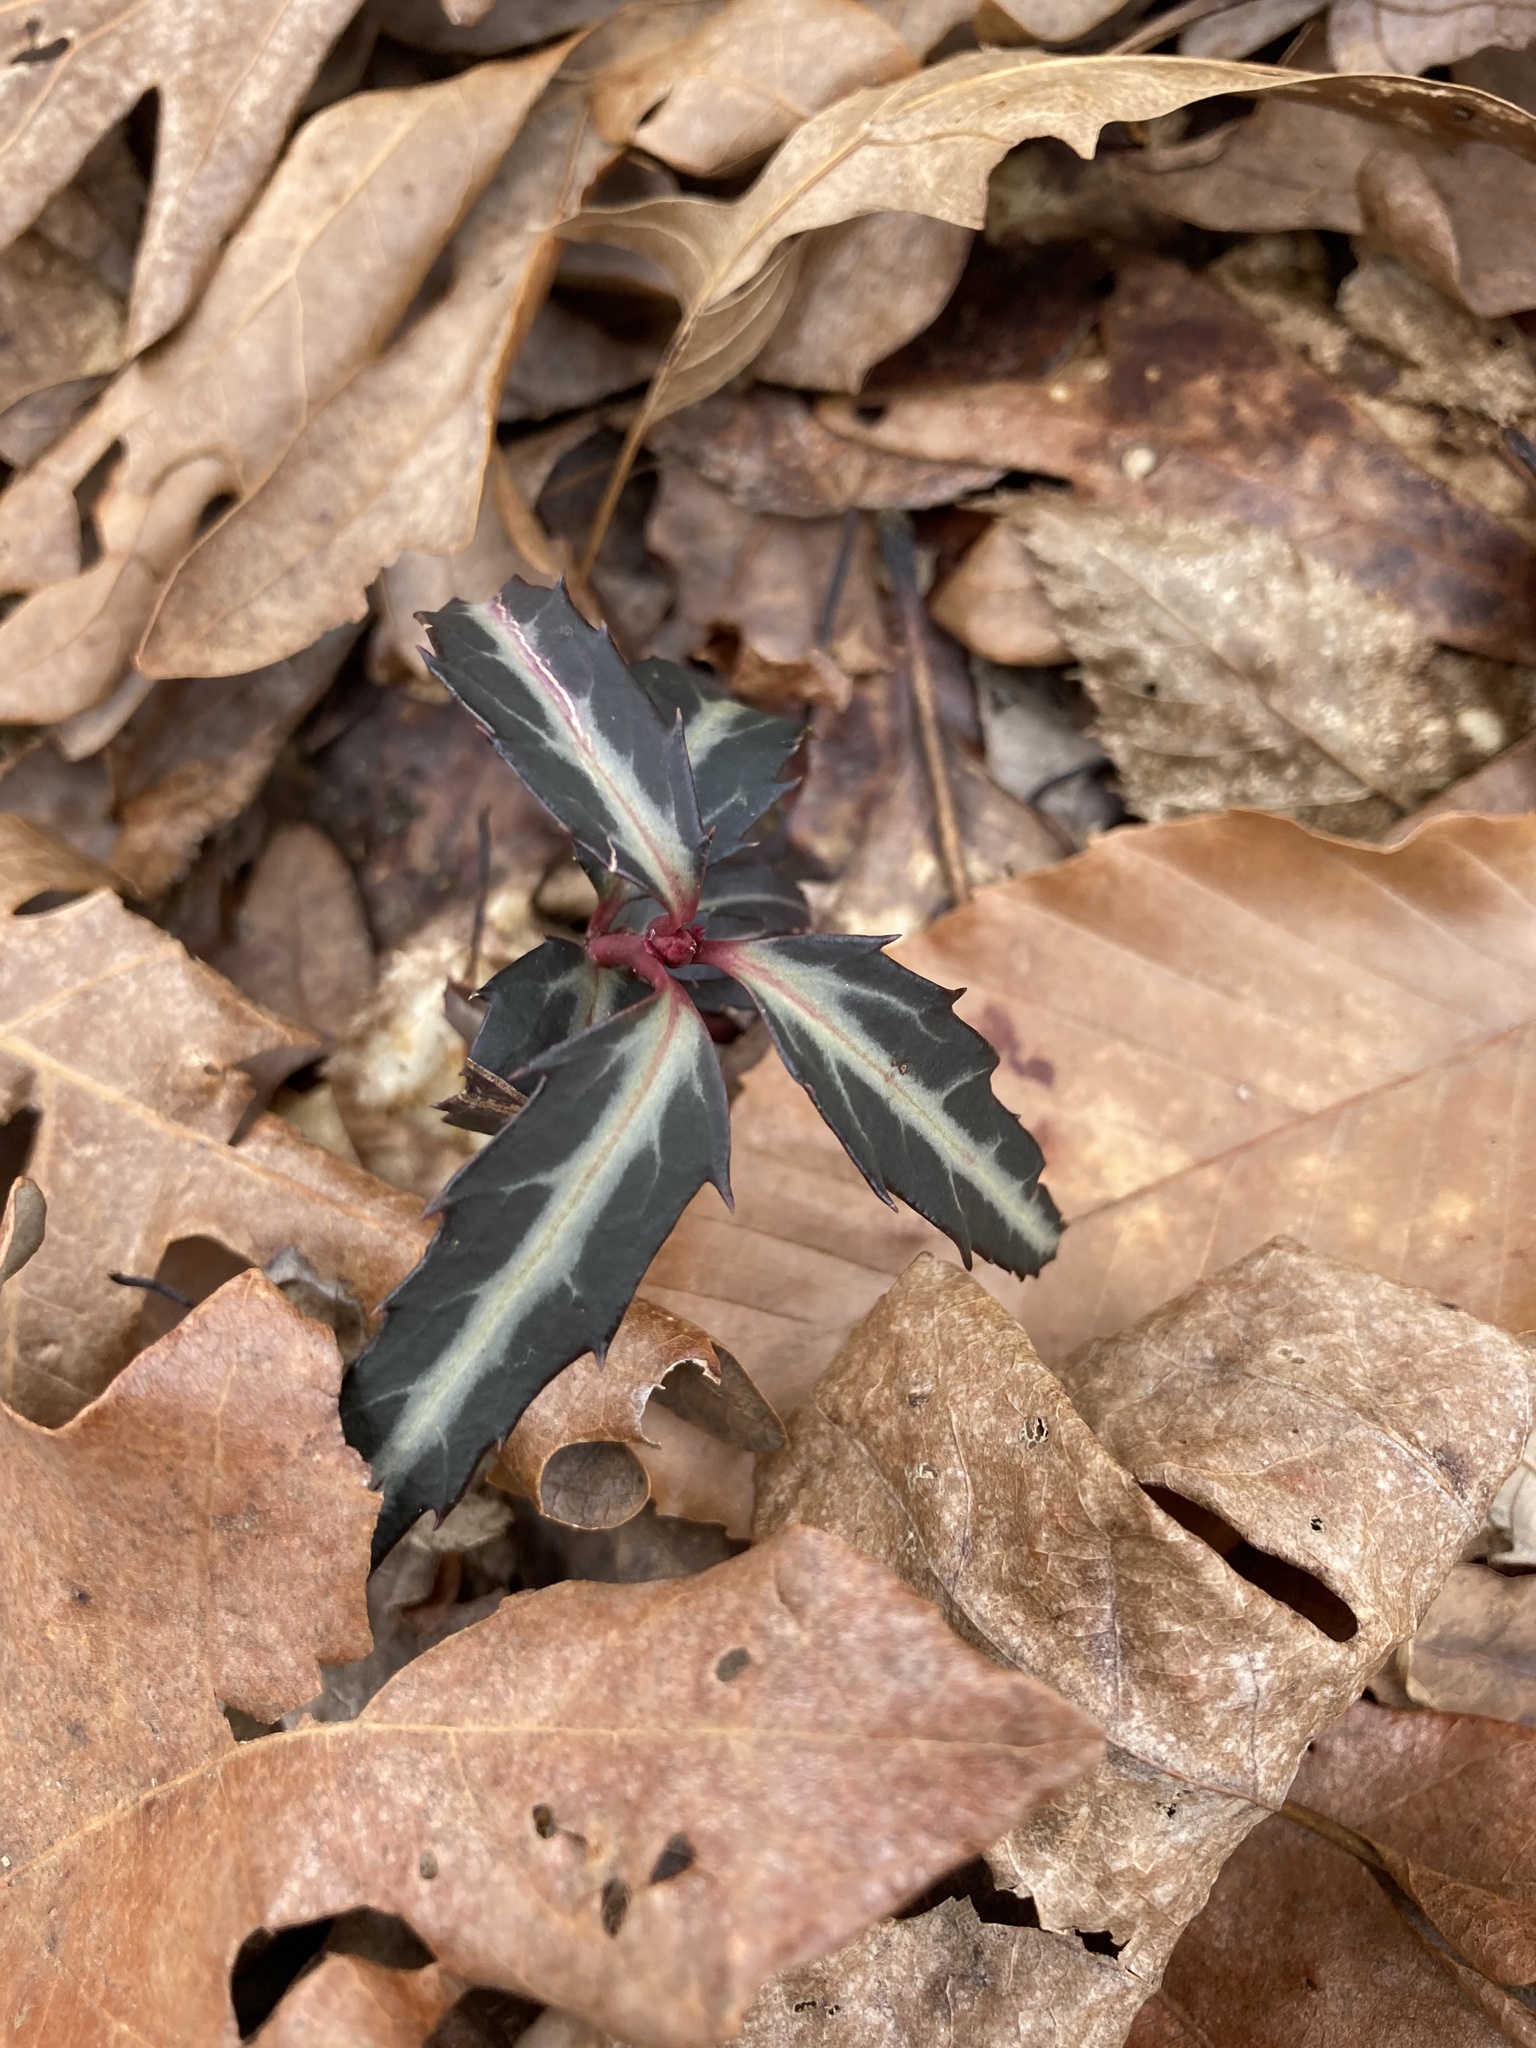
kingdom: Plantae
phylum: Tracheophyta
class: Magnoliopsida
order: Ericales
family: Ericaceae
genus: Chimaphila
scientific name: Chimaphila maculata
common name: Spotted pipsissewa
